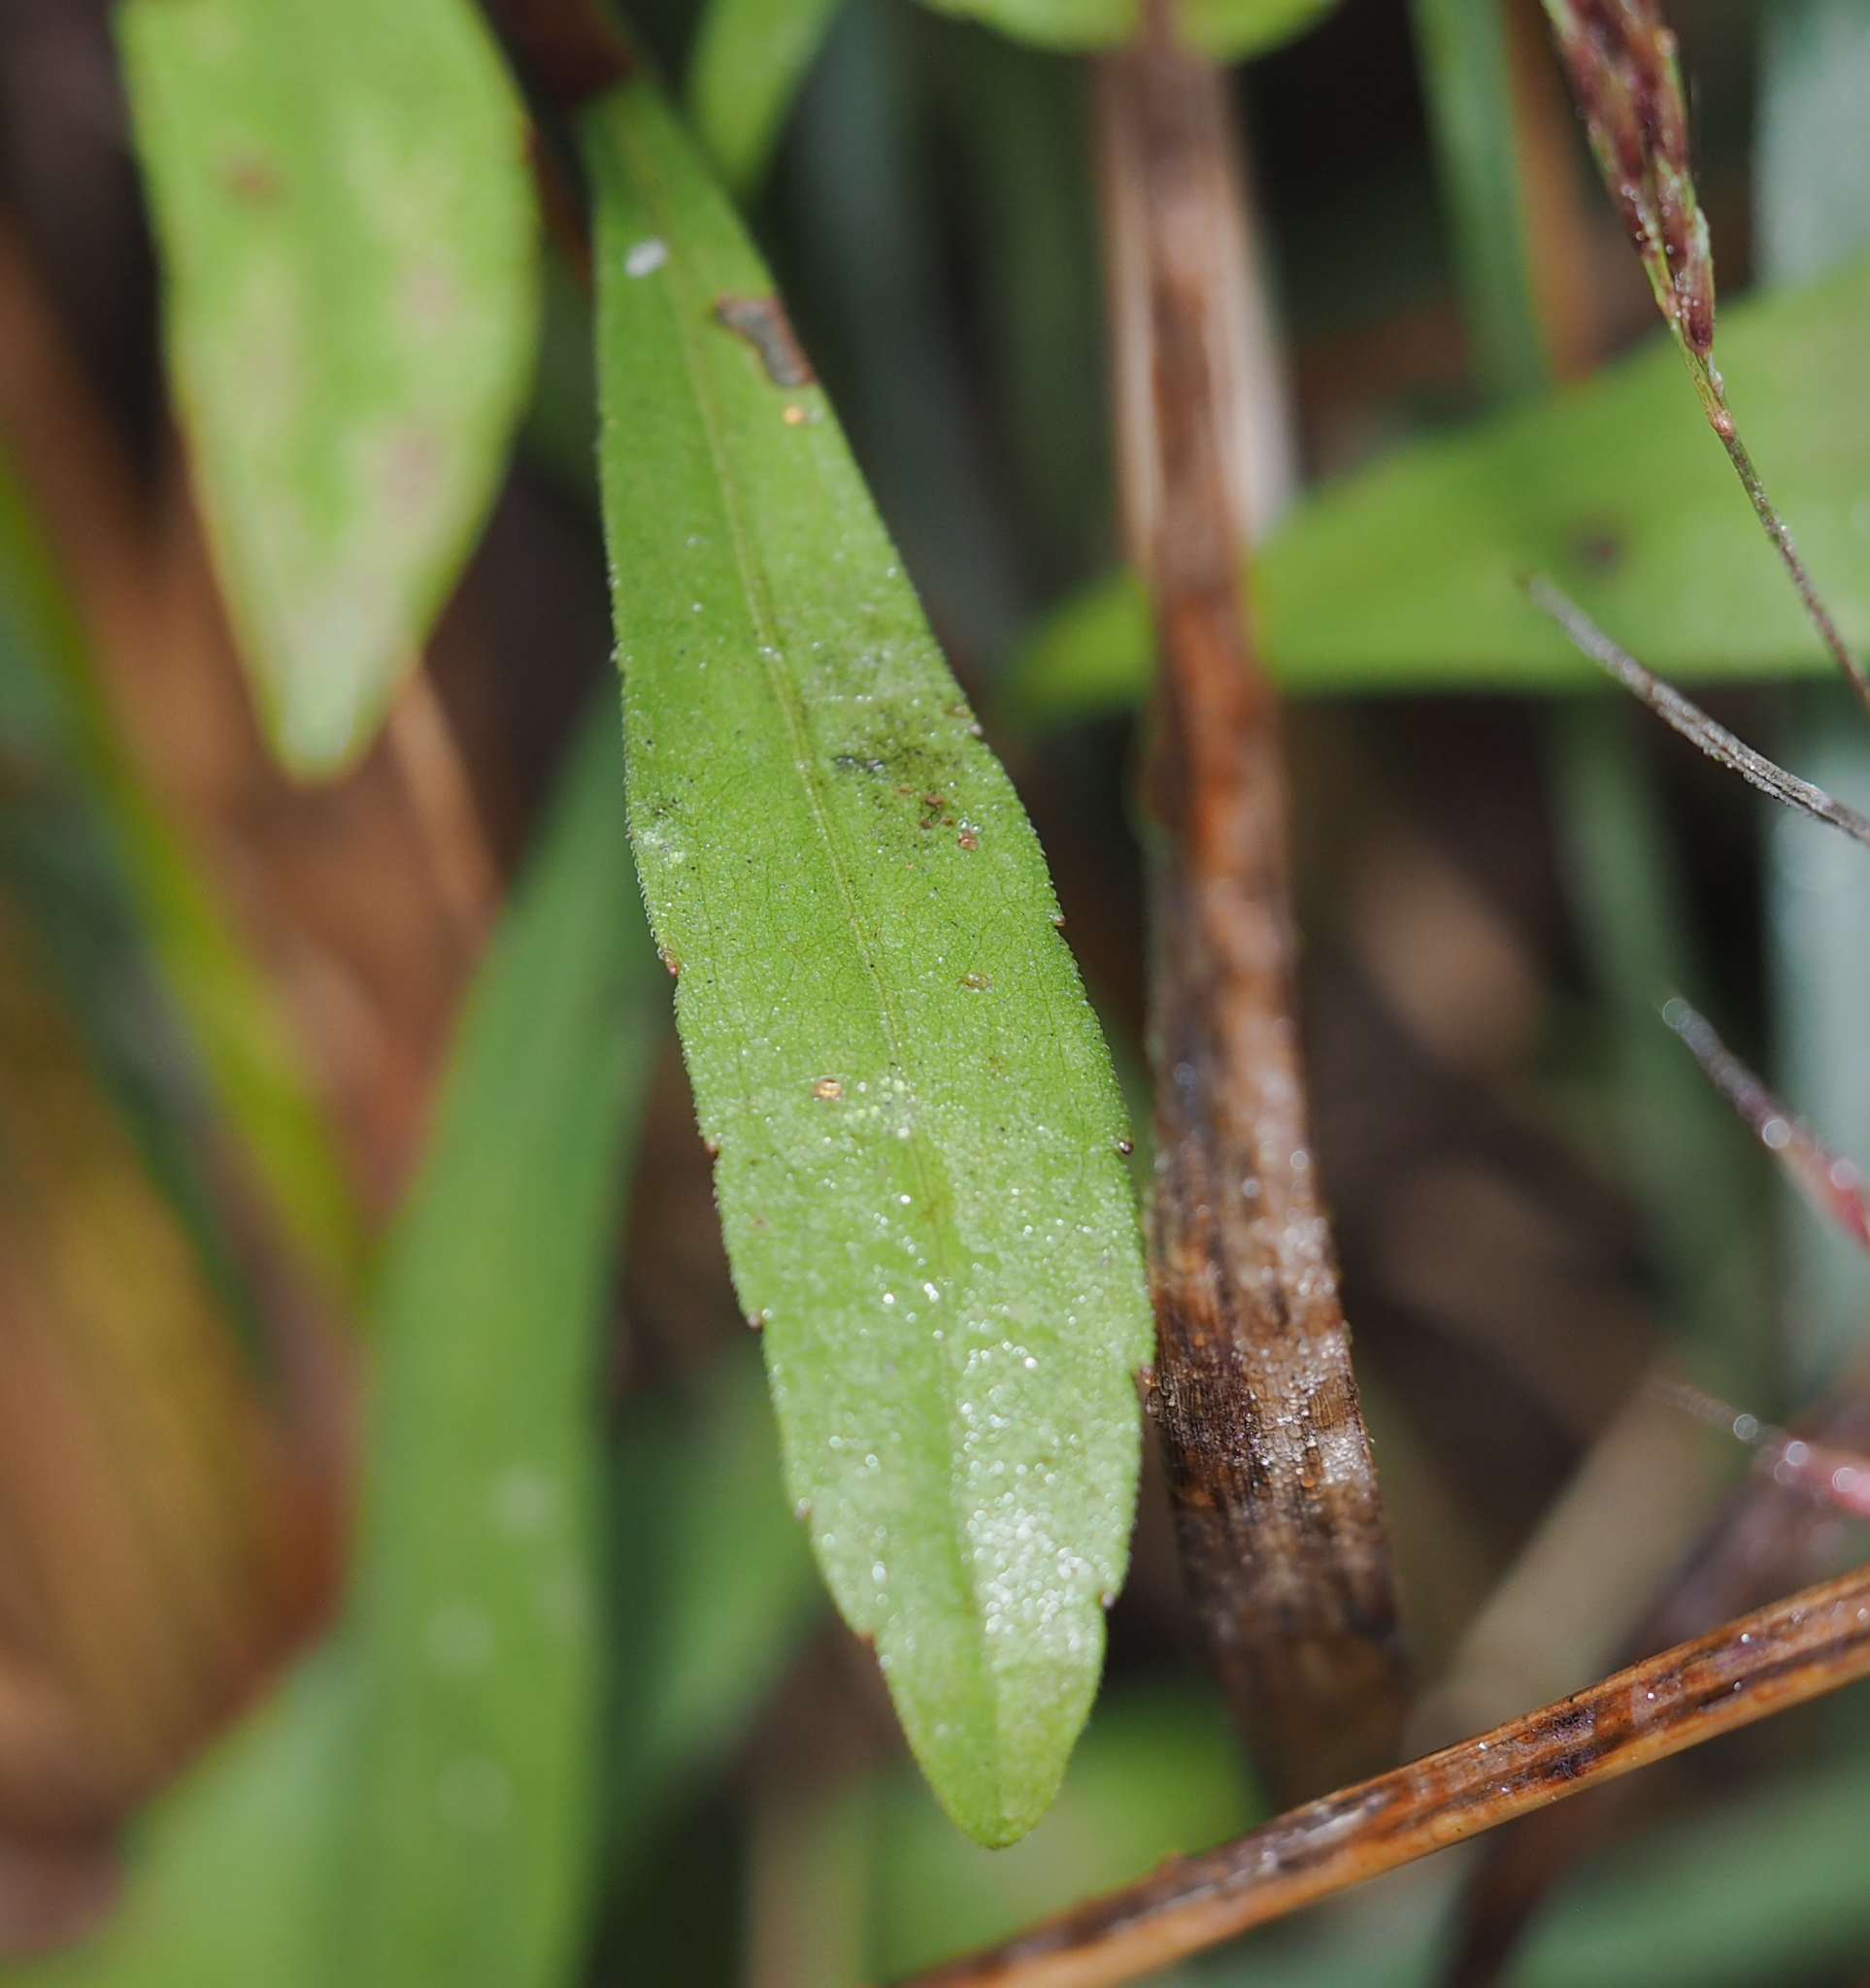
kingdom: Plantae
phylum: Tracheophyta
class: Magnoliopsida
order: Asterales
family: Asteraceae
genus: Solidago
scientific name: Solidago nemoralis
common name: Grey goldenrod
